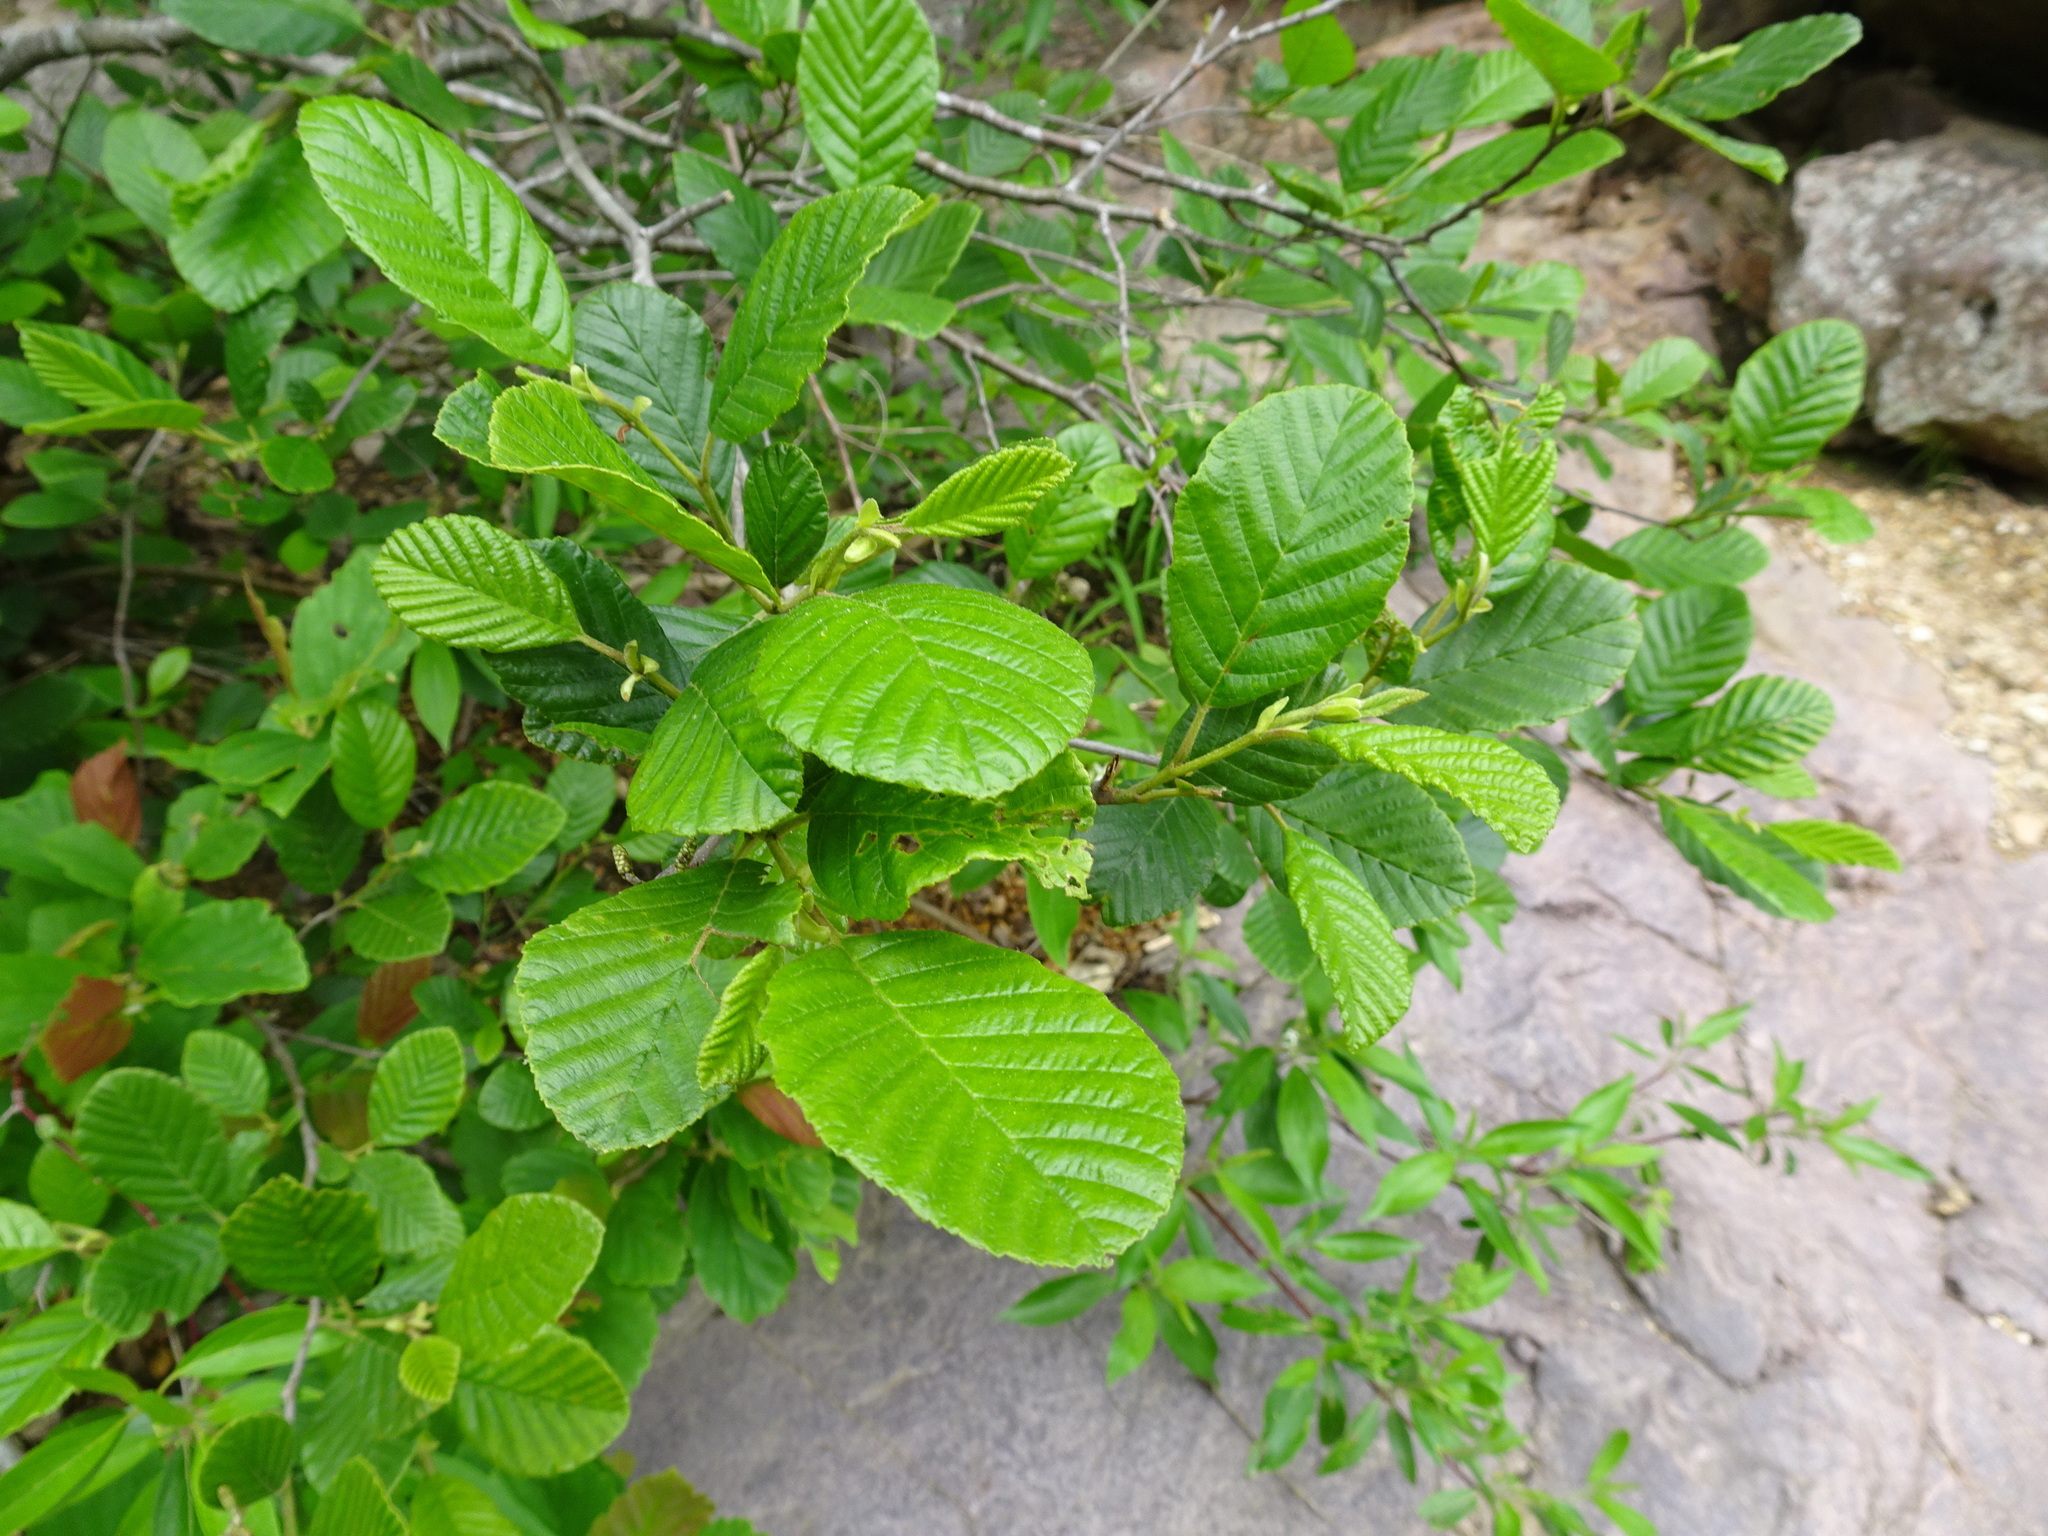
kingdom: Plantae
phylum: Tracheophyta
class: Magnoliopsida
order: Fagales
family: Betulaceae
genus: Alnus
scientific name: Alnus serrulata
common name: Hazel alder
